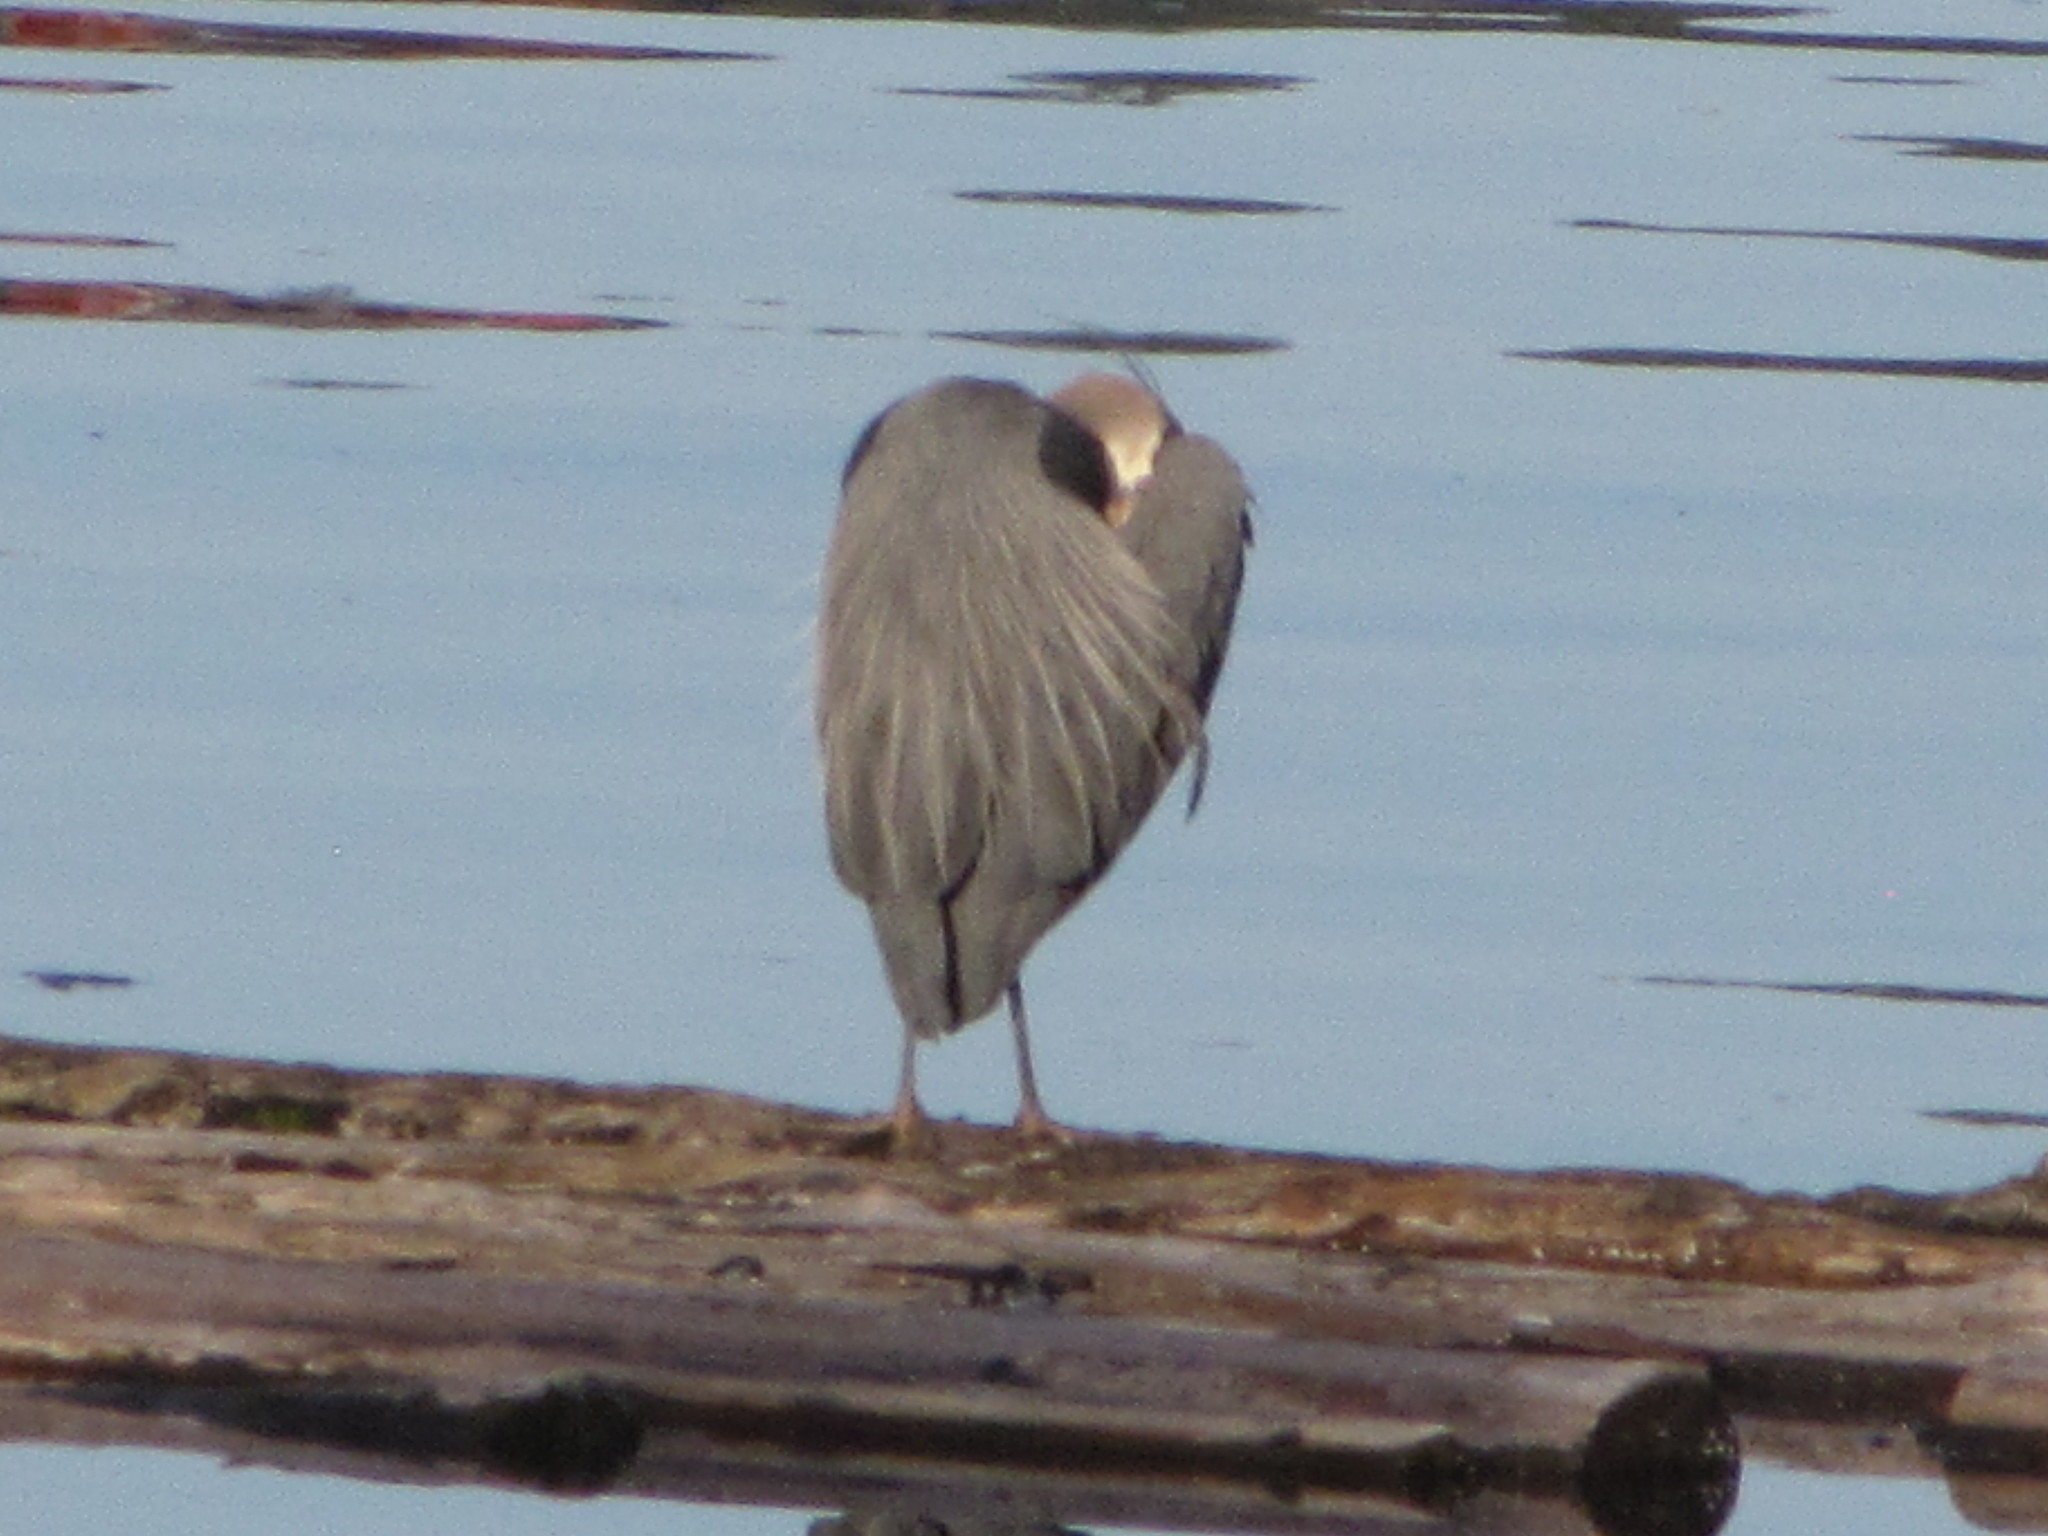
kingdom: Animalia
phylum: Chordata
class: Aves
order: Pelecaniformes
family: Ardeidae
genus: Ardea
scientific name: Ardea herodias
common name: Great blue heron
